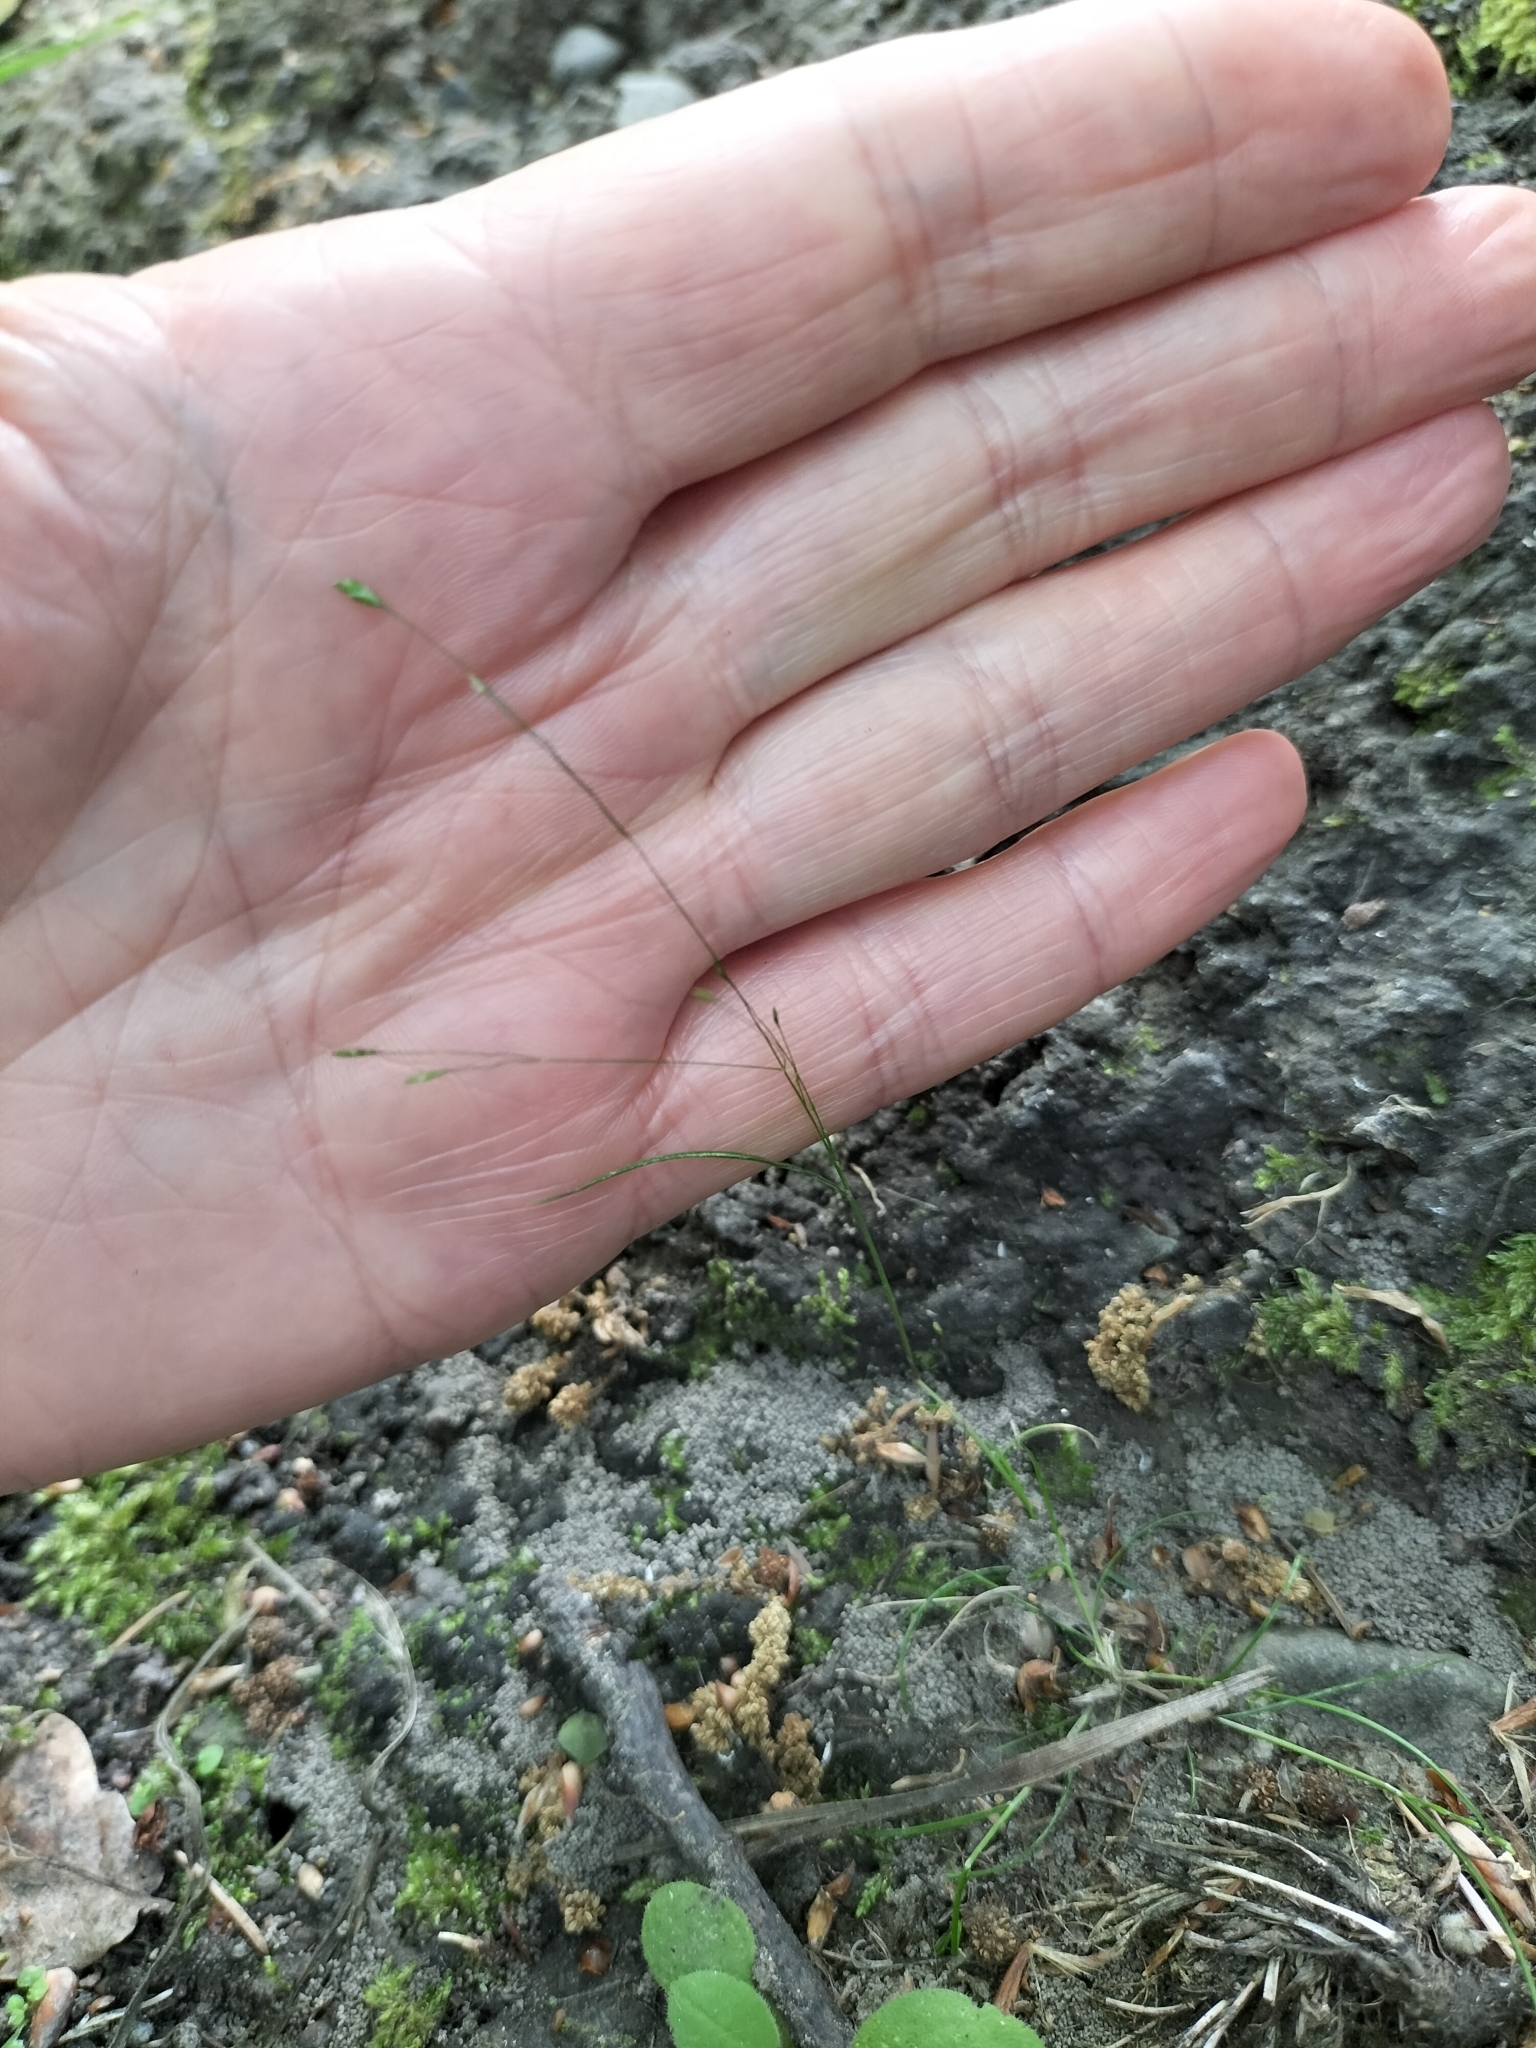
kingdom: Plantae
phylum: Tracheophyta
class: Liliopsida
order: Poales
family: Poaceae
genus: Poa
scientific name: Poa imbecilla
